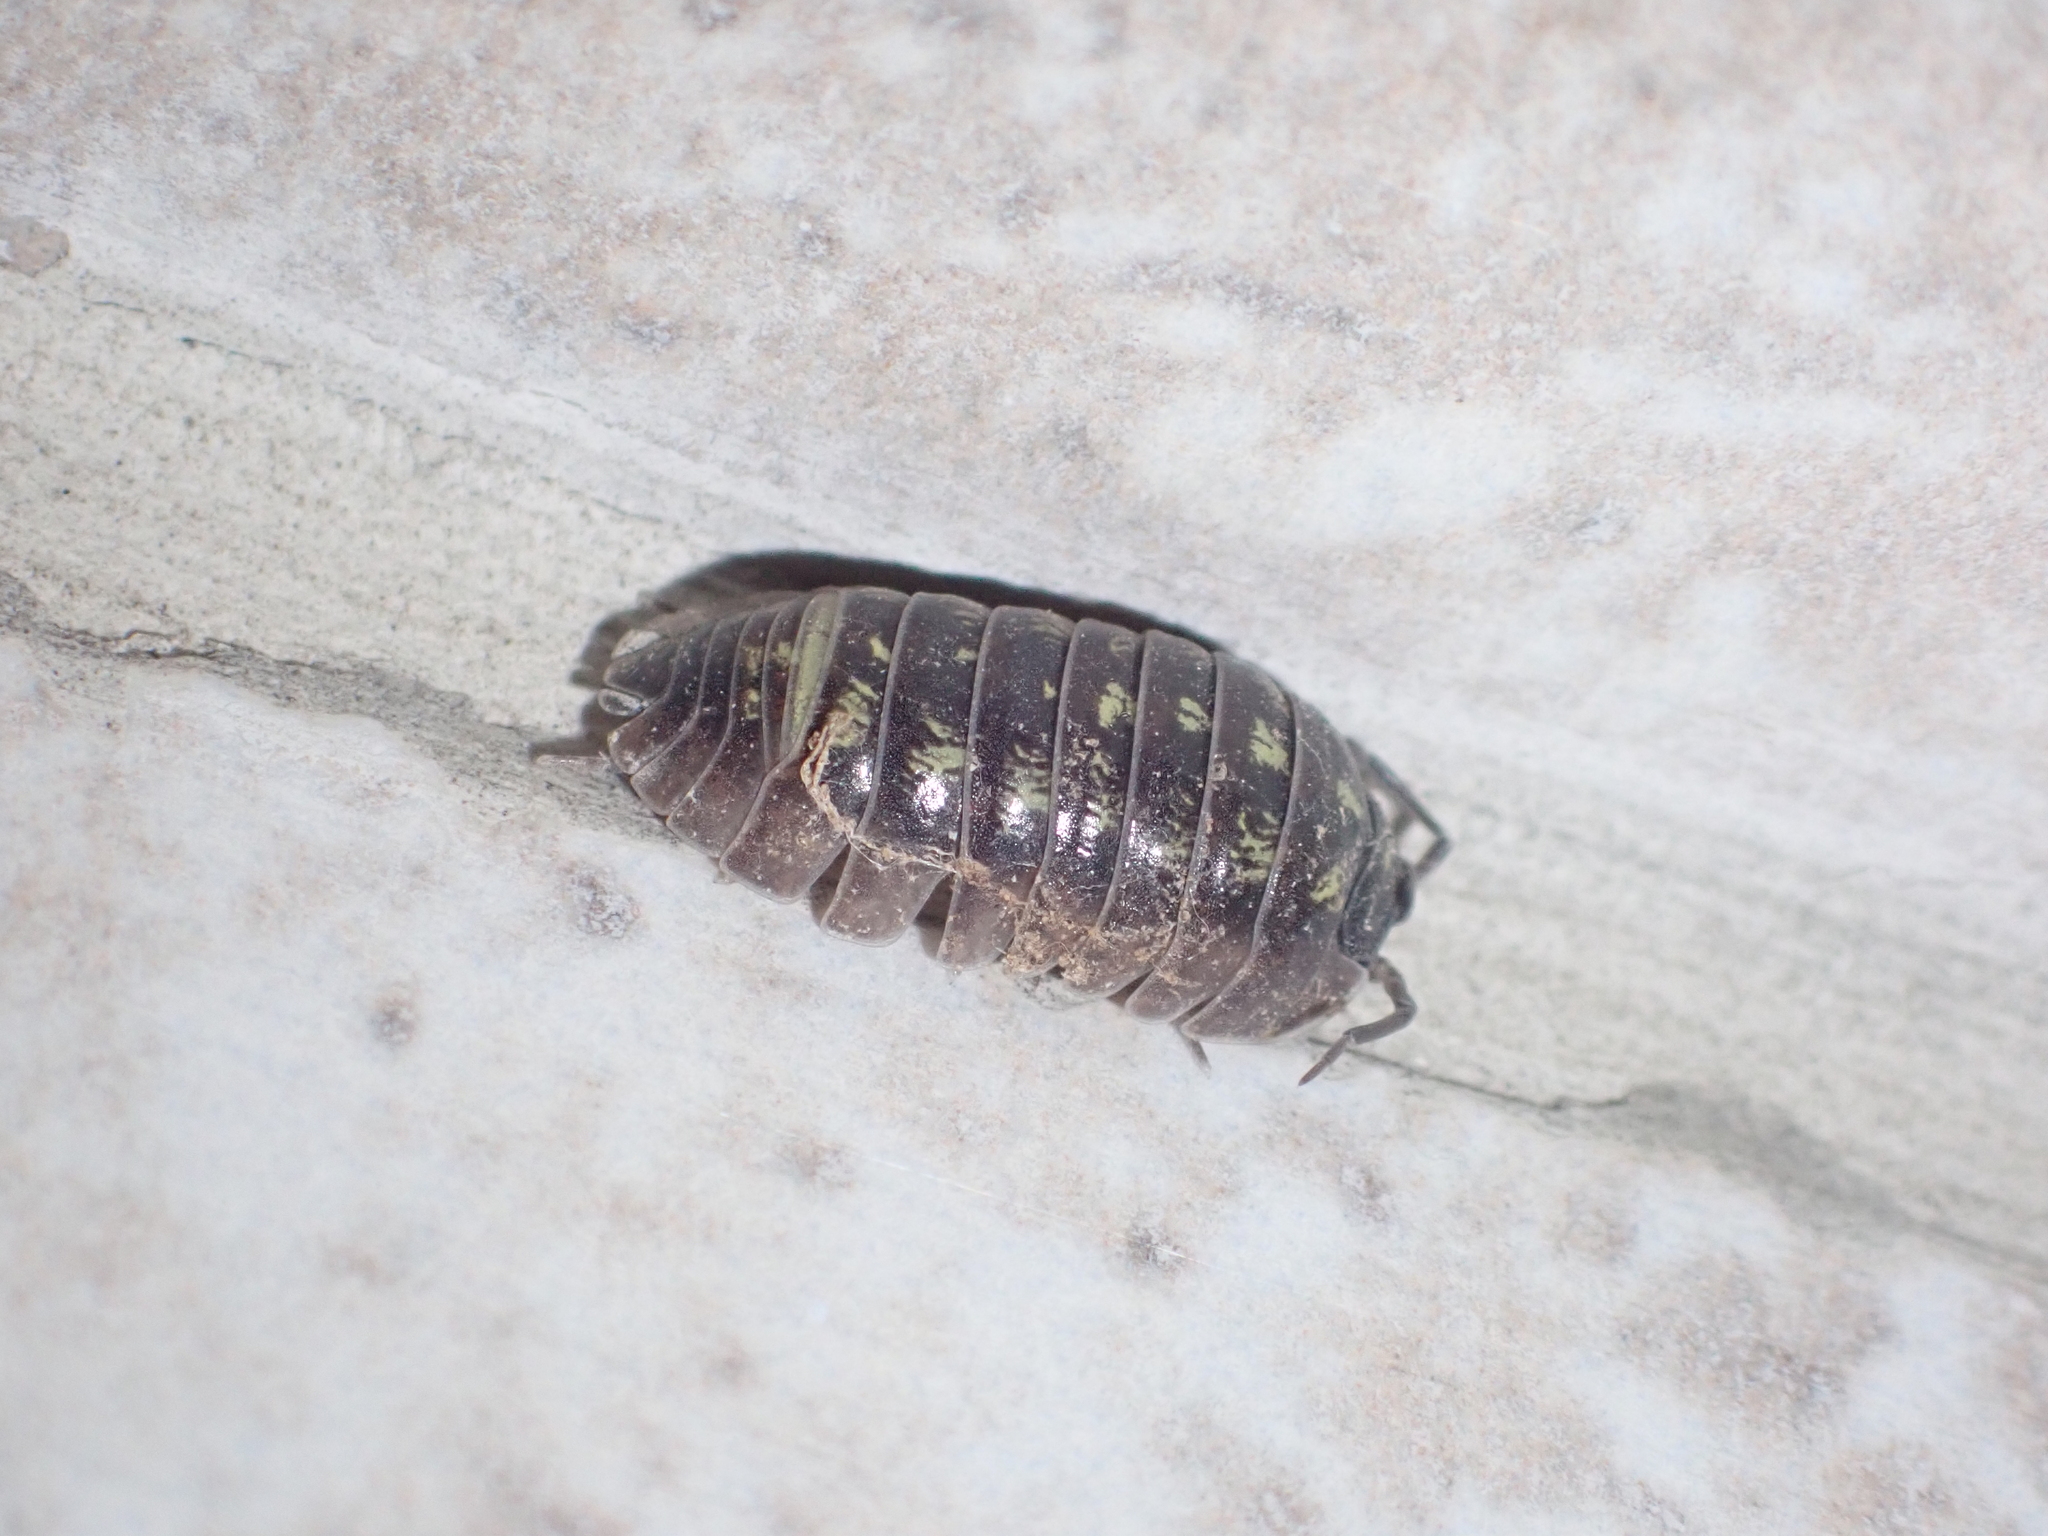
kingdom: Animalia
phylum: Arthropoda
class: Malacostraca
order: Isopoda
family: Armadillidiidae
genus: Armadillidium
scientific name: Armadillidium depressum
